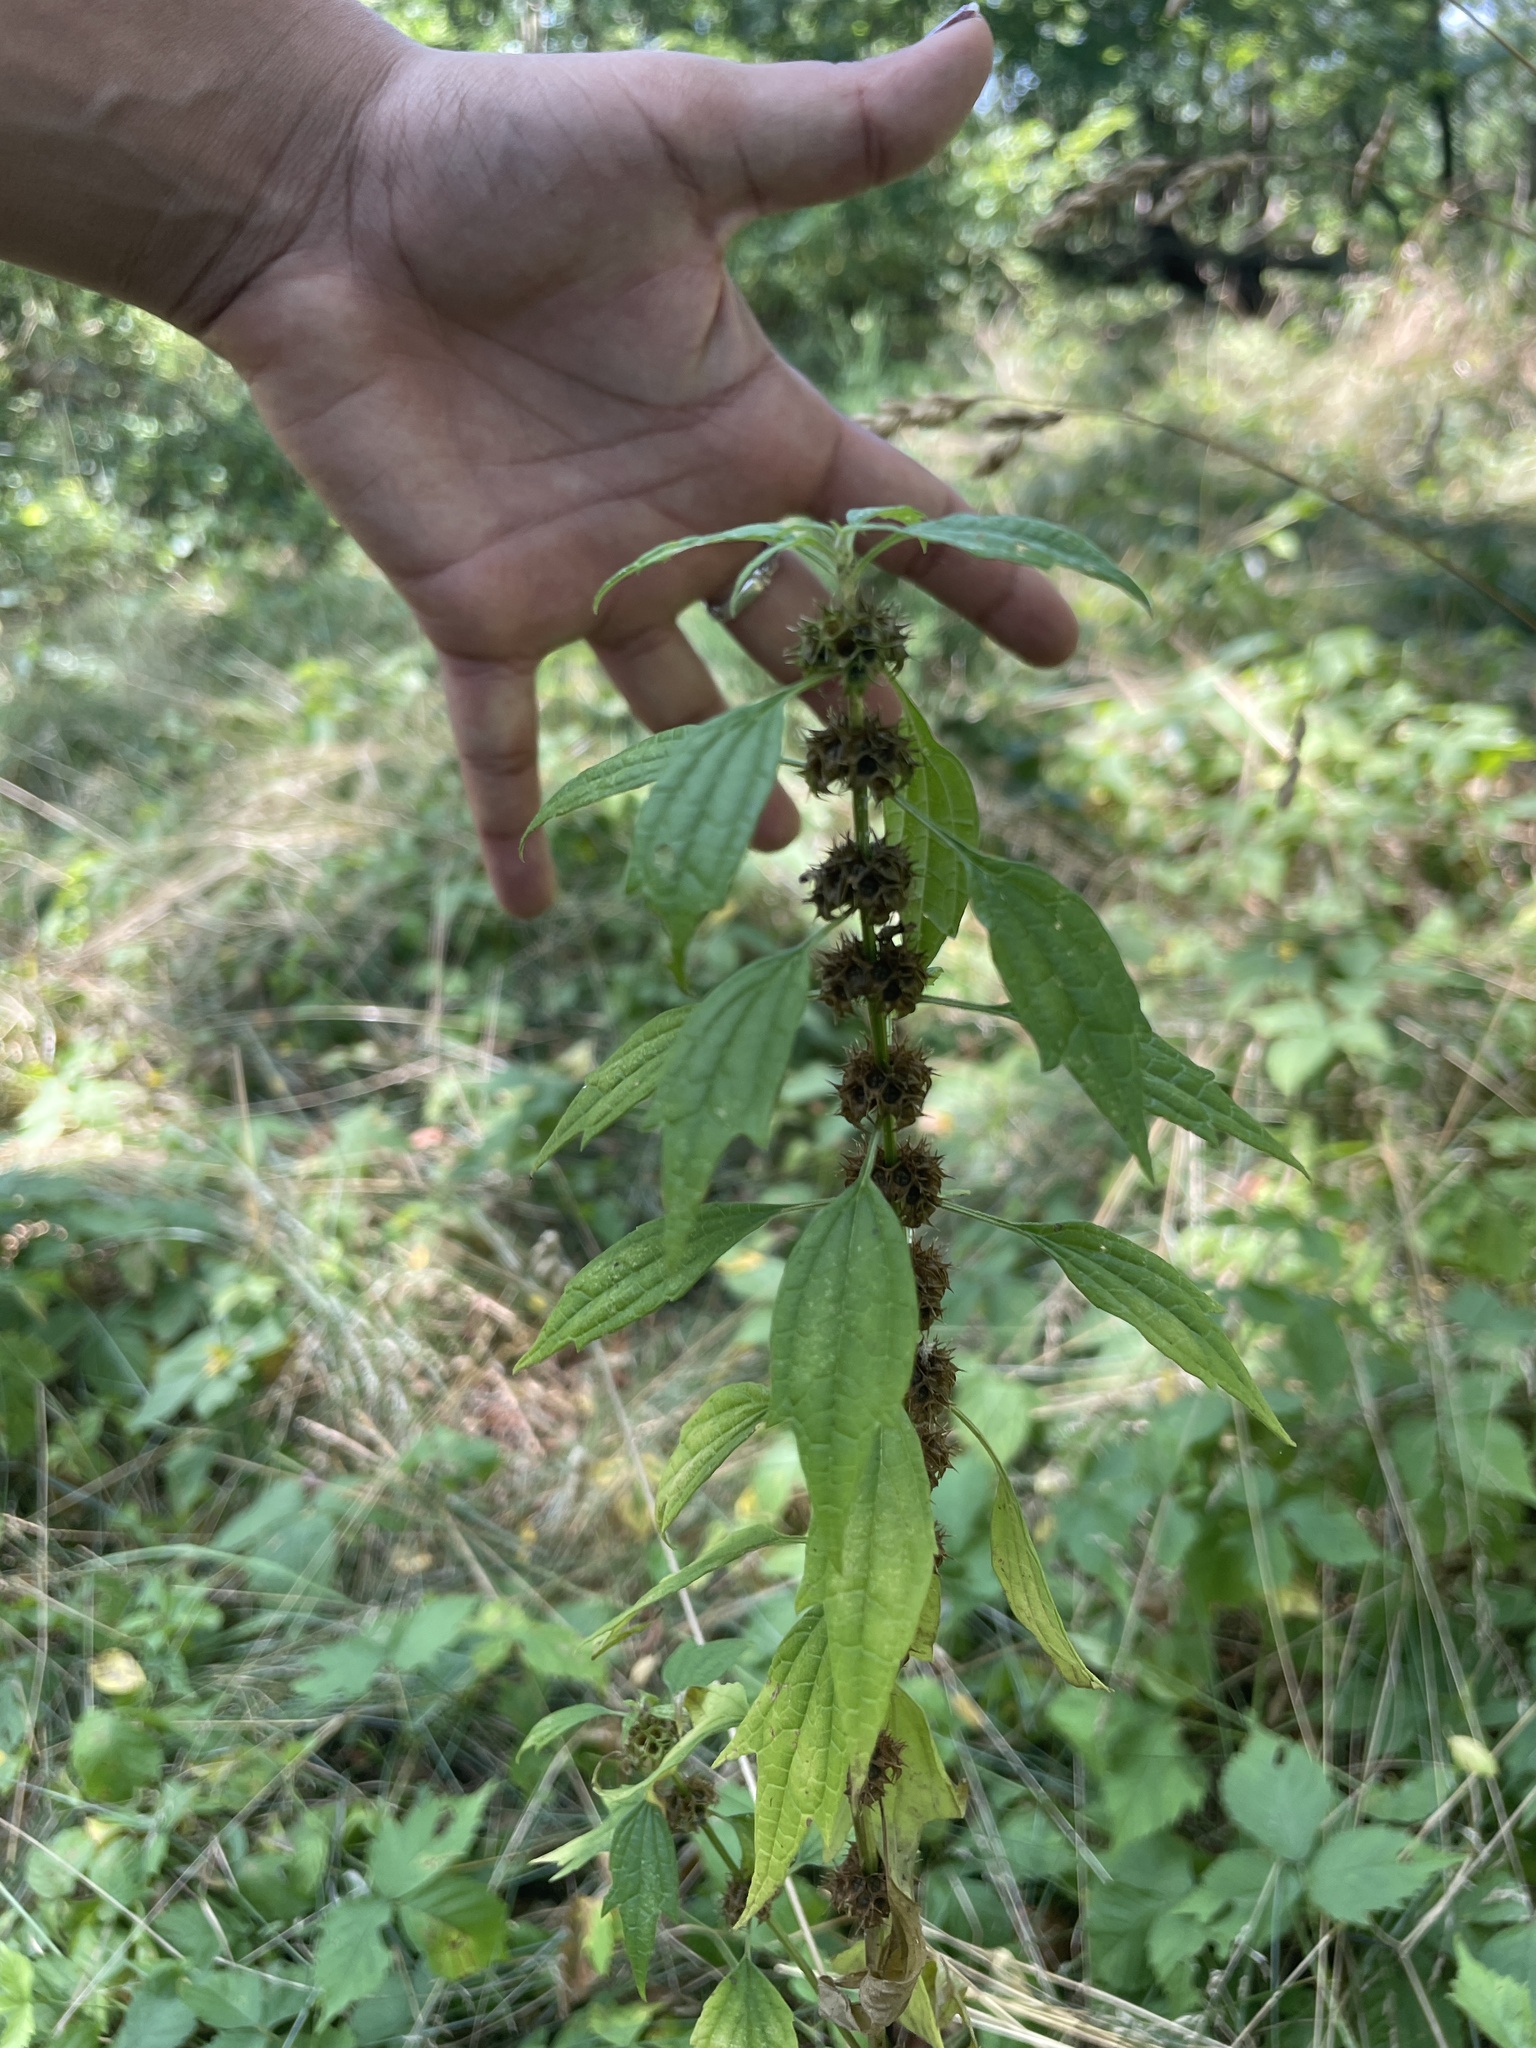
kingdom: Plantae
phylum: Tracheophyta
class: Magnoliopsida
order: Lamiales
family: Lamiaceae
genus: Leonurus
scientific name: Leonurus cardiaca
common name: Motherwort
